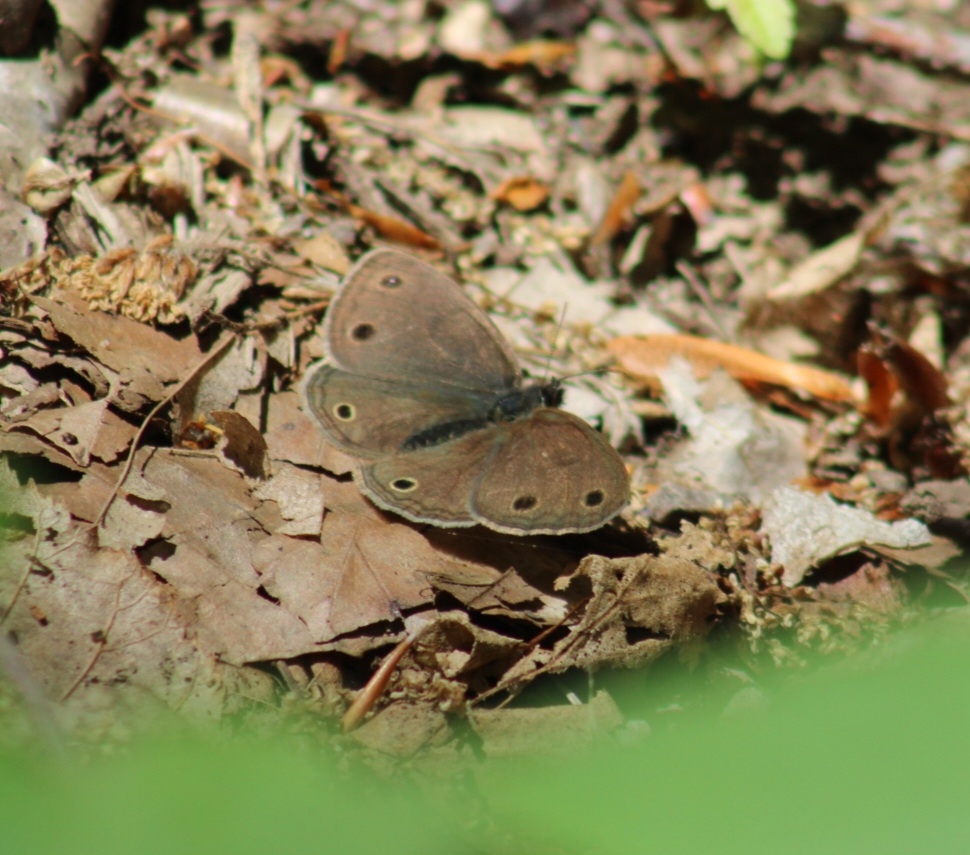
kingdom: Animalia
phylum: Arthropoda
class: Insecta
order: Lepidoptera
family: Nymphalidae
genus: Euptychia
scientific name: Euptychia cymela
